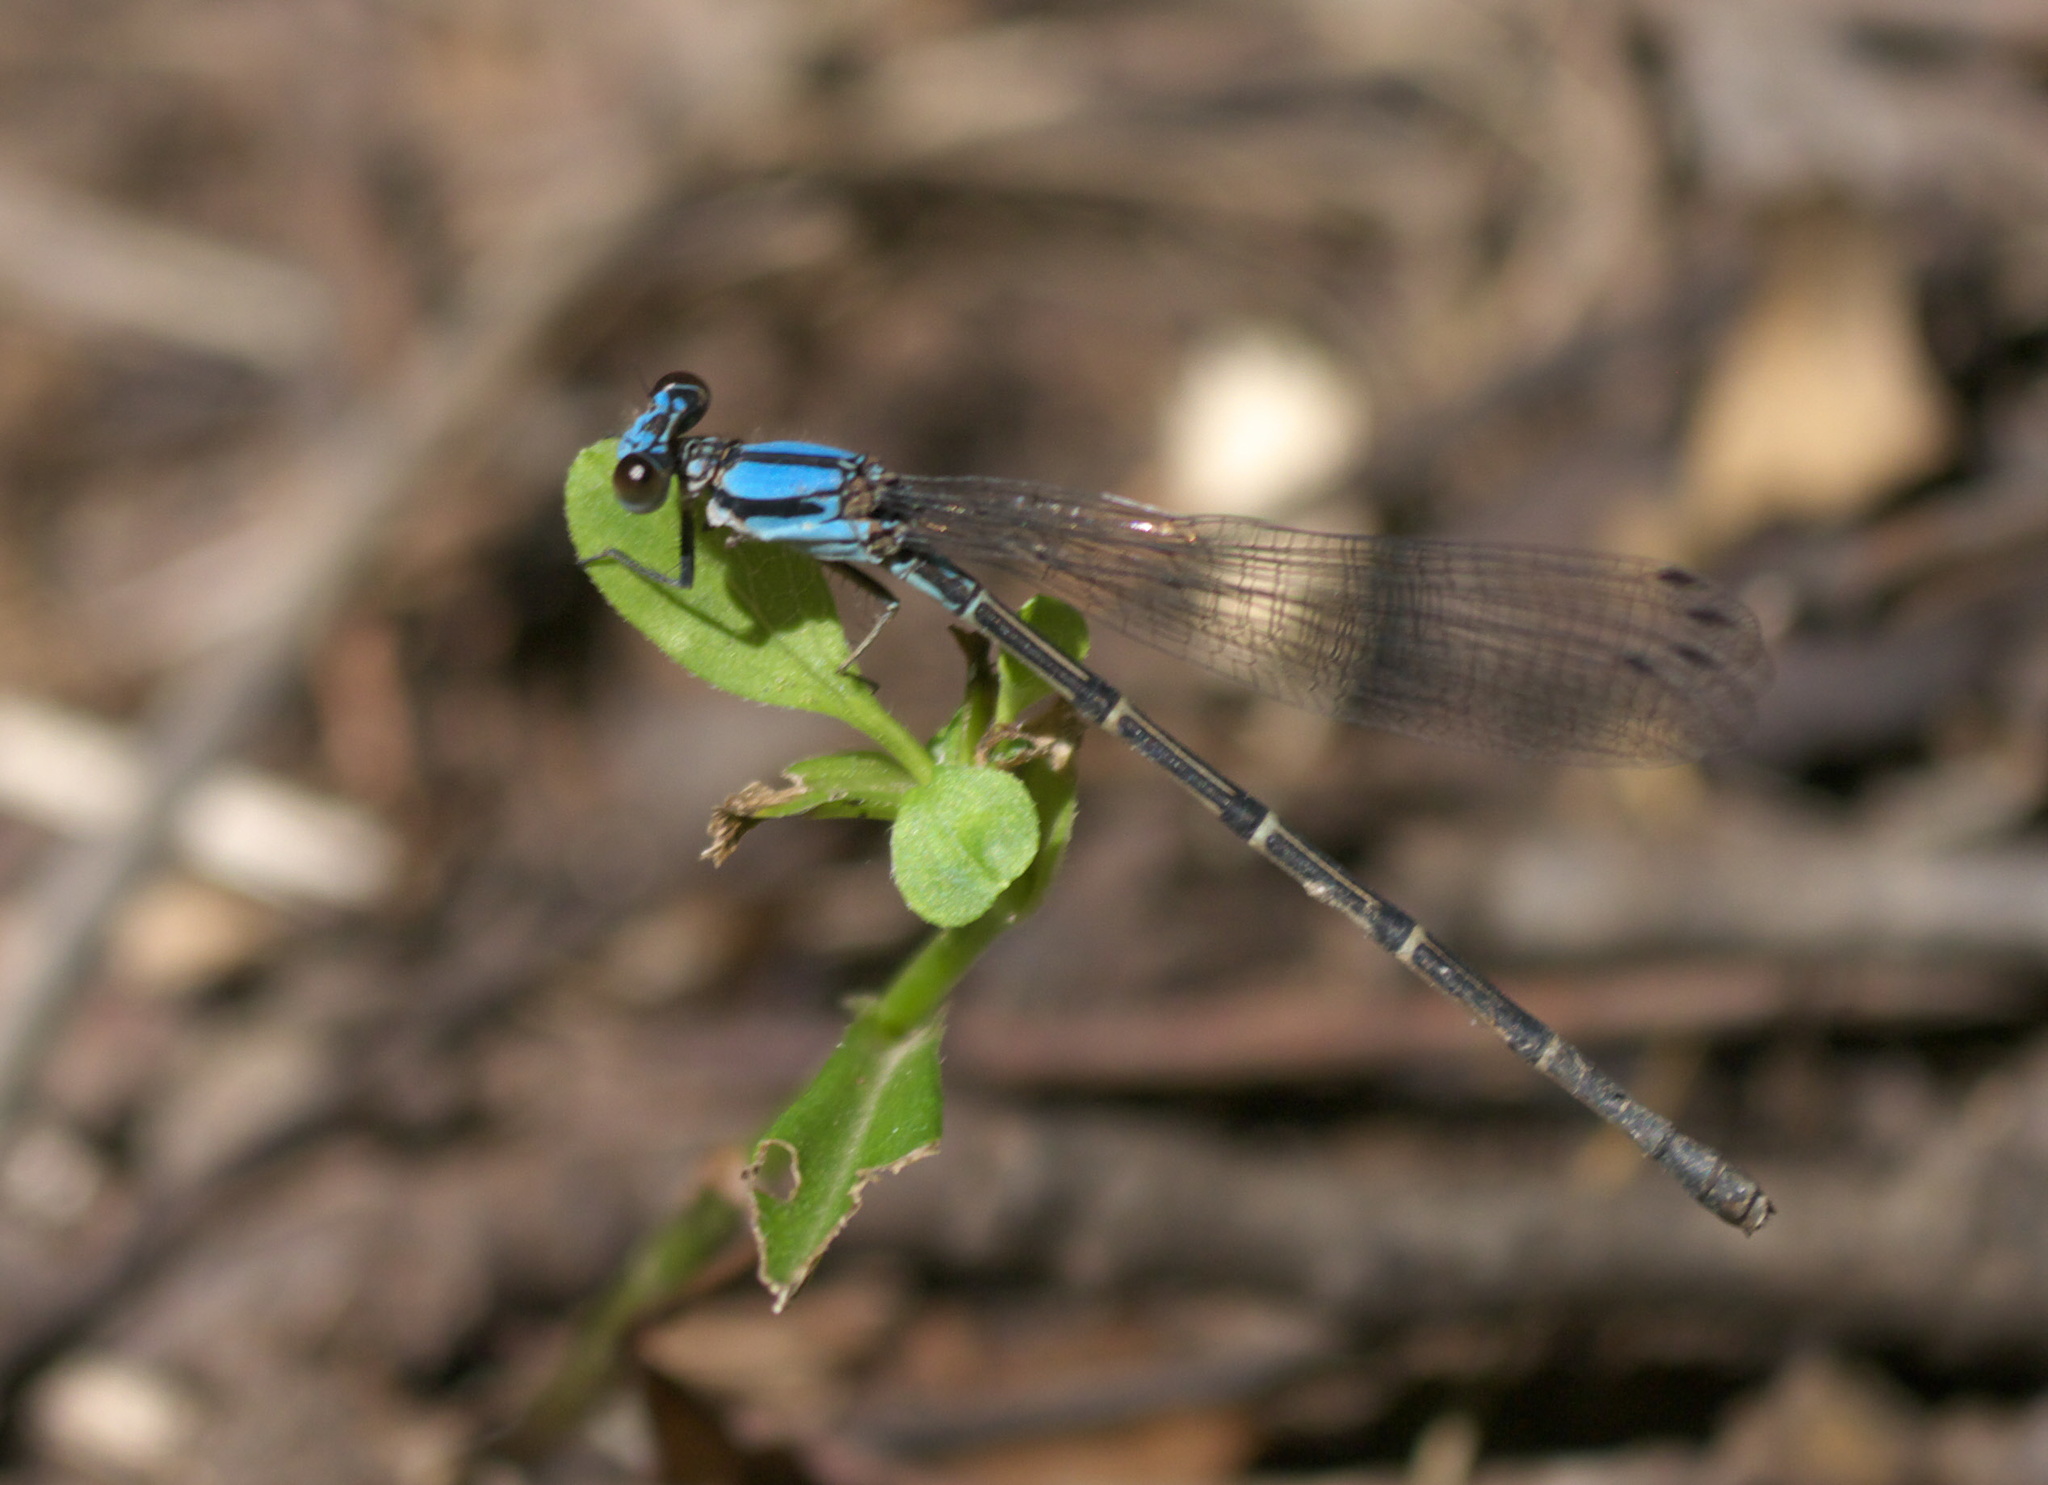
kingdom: Animalia
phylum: Arthropoda
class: Insecta
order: Odonata
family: Coenagrionidae
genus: Argia
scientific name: Argia tibialis
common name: Blue-tipped dancer
